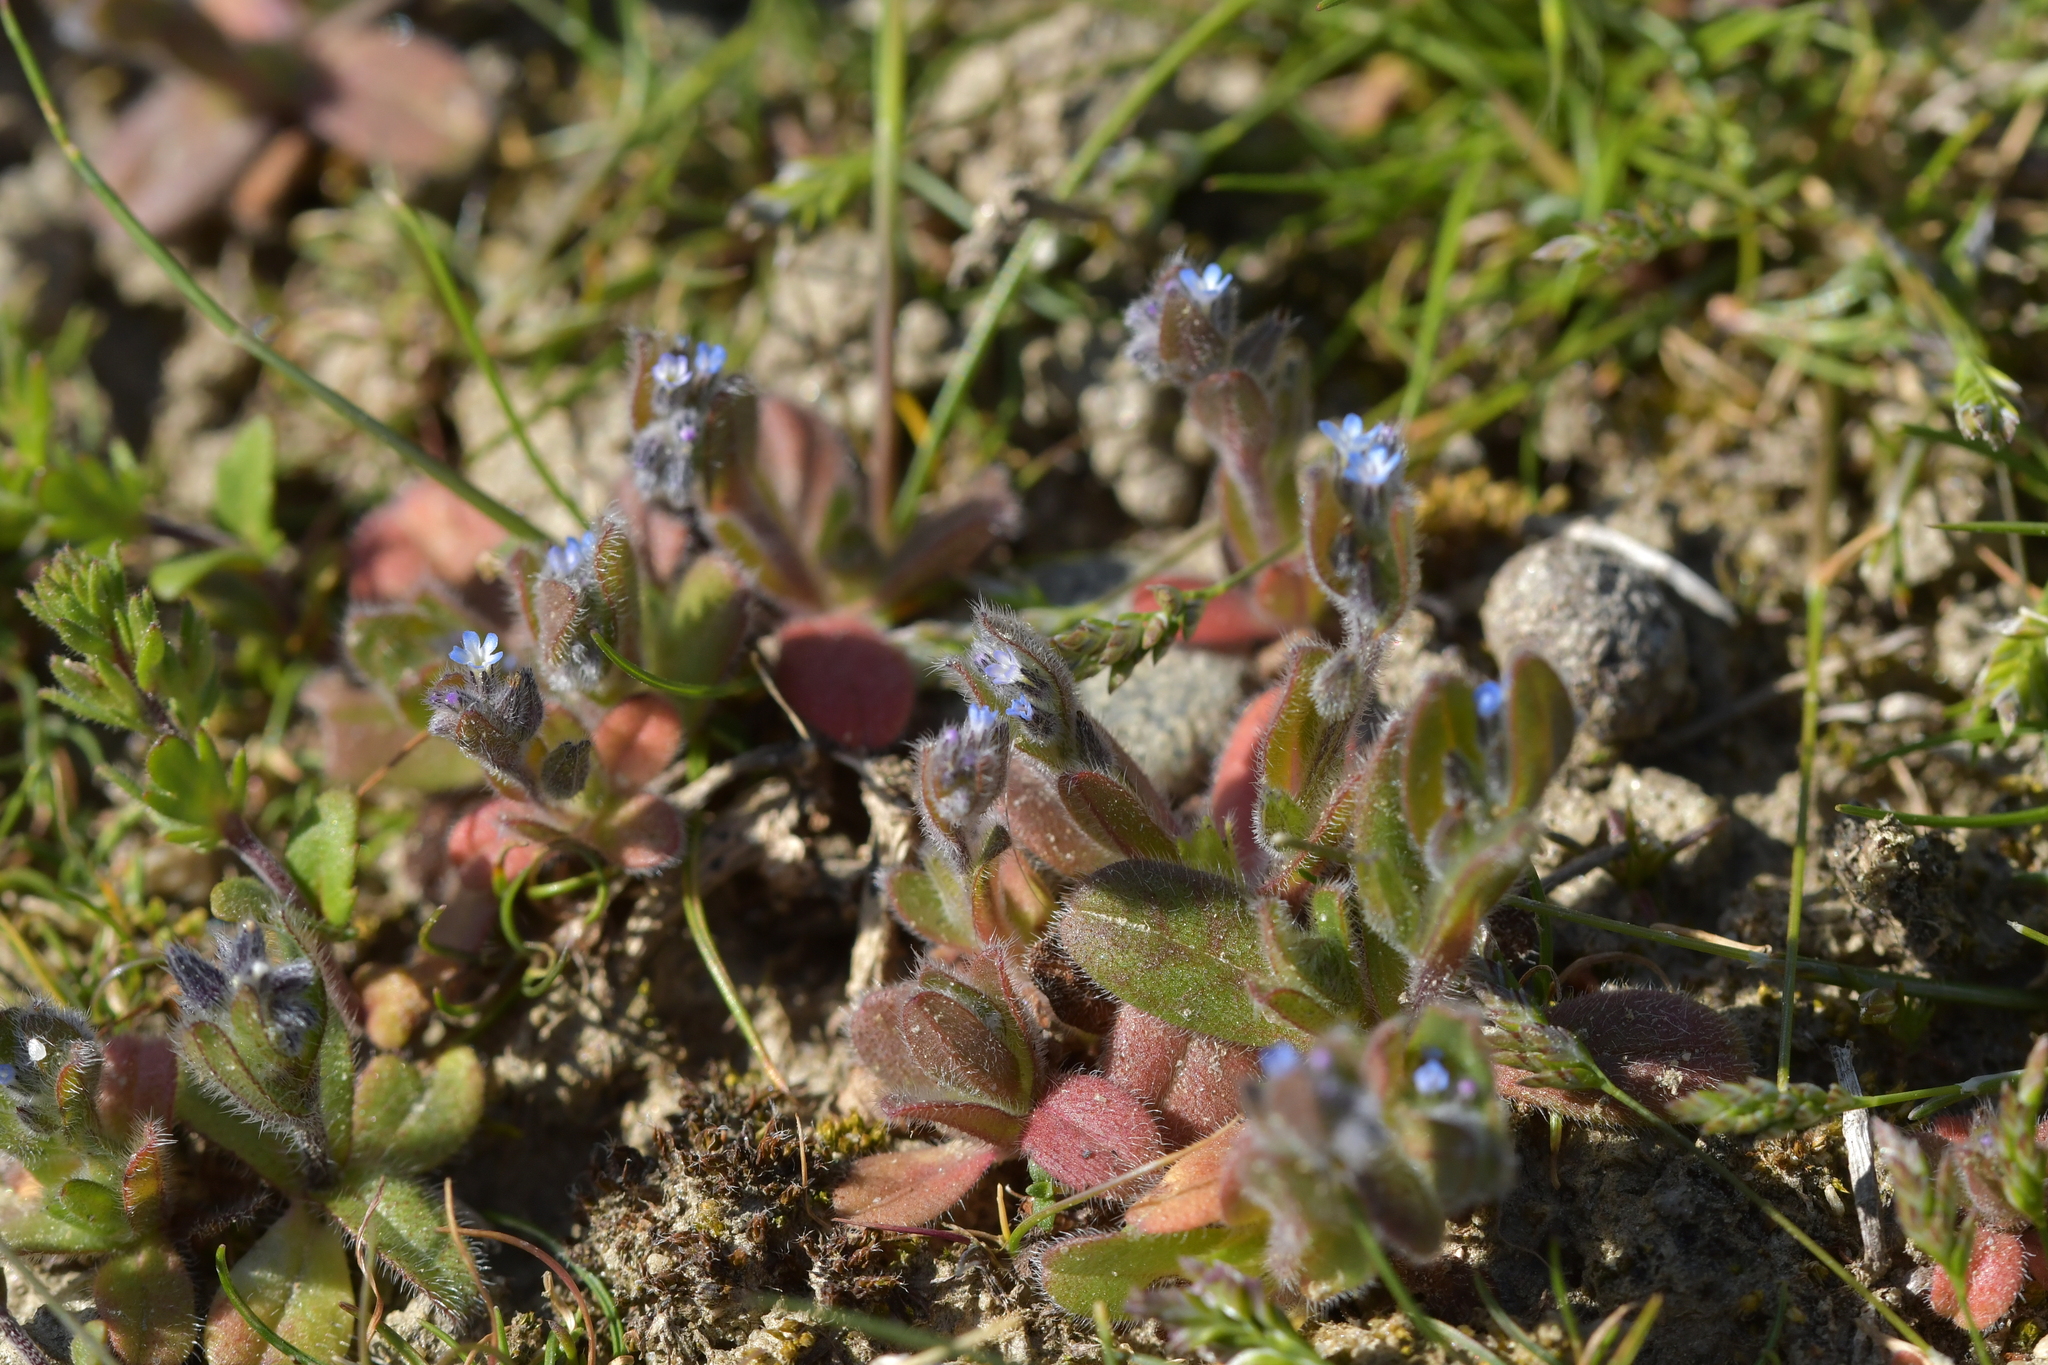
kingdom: Plantae
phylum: Tracheophyta
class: Magnoliopsida
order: Boraginales
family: Boraginaceae
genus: Myosotis
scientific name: Myosotis stricta
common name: Strict forget-me-not
